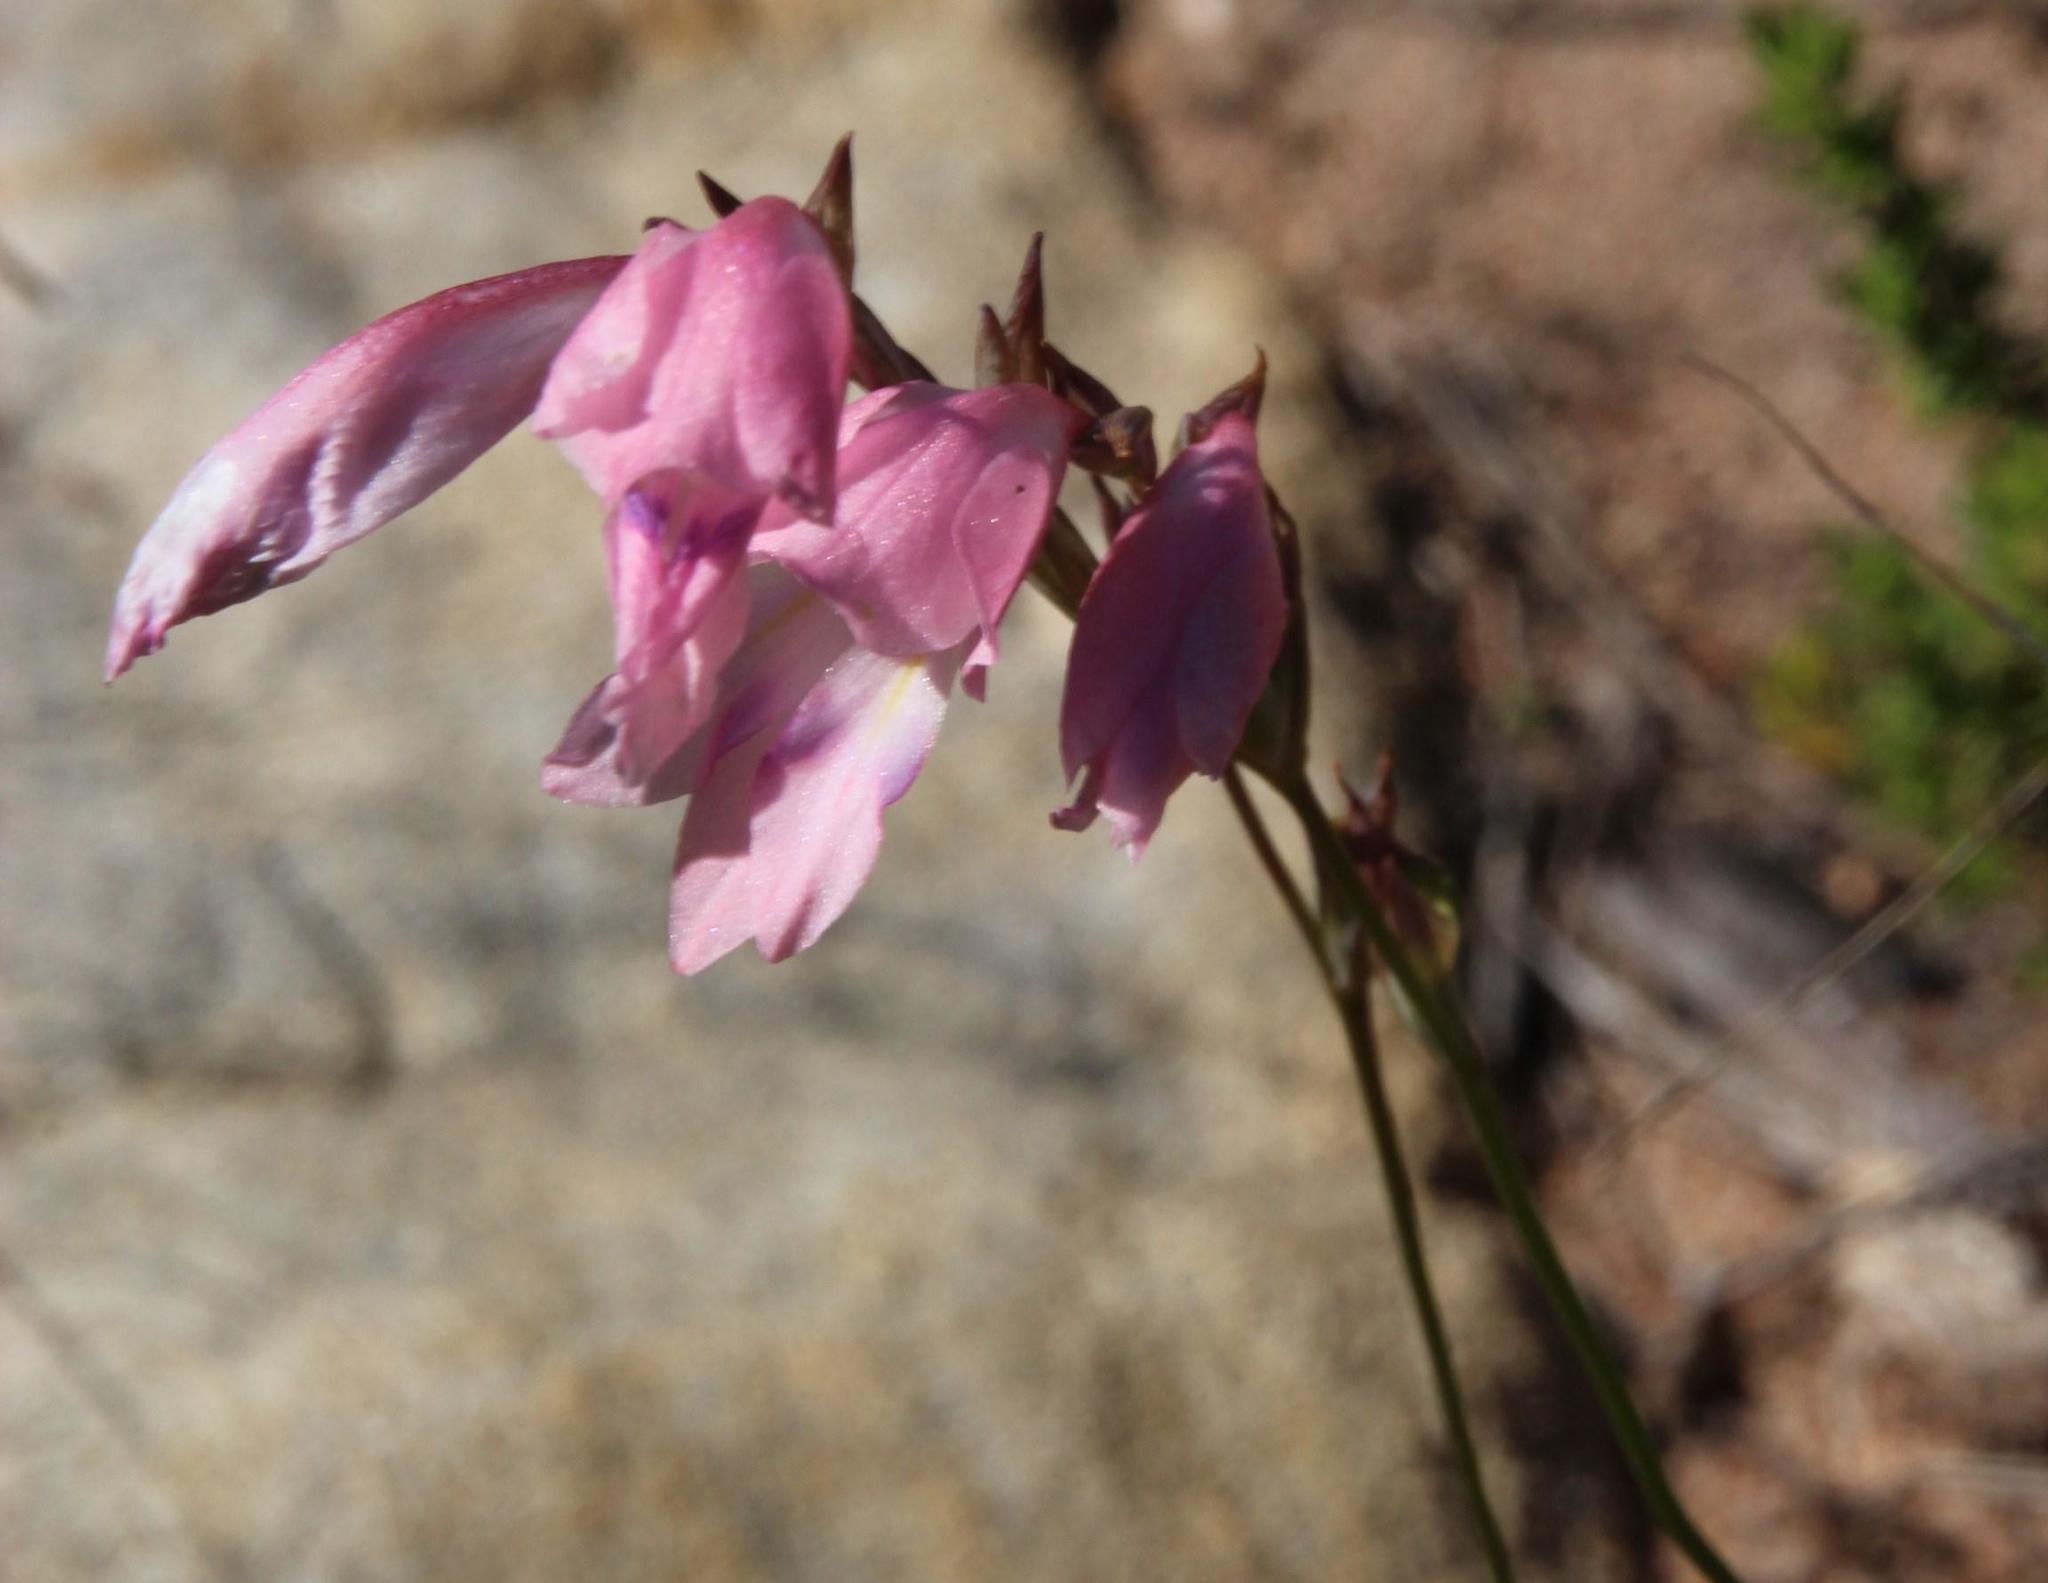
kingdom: Plantae
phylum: Tracheophyta
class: Liliopsida
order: Asparagales
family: Iridaceae
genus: Gladiolus
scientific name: Gladiolus brevifolius
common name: March pypie
